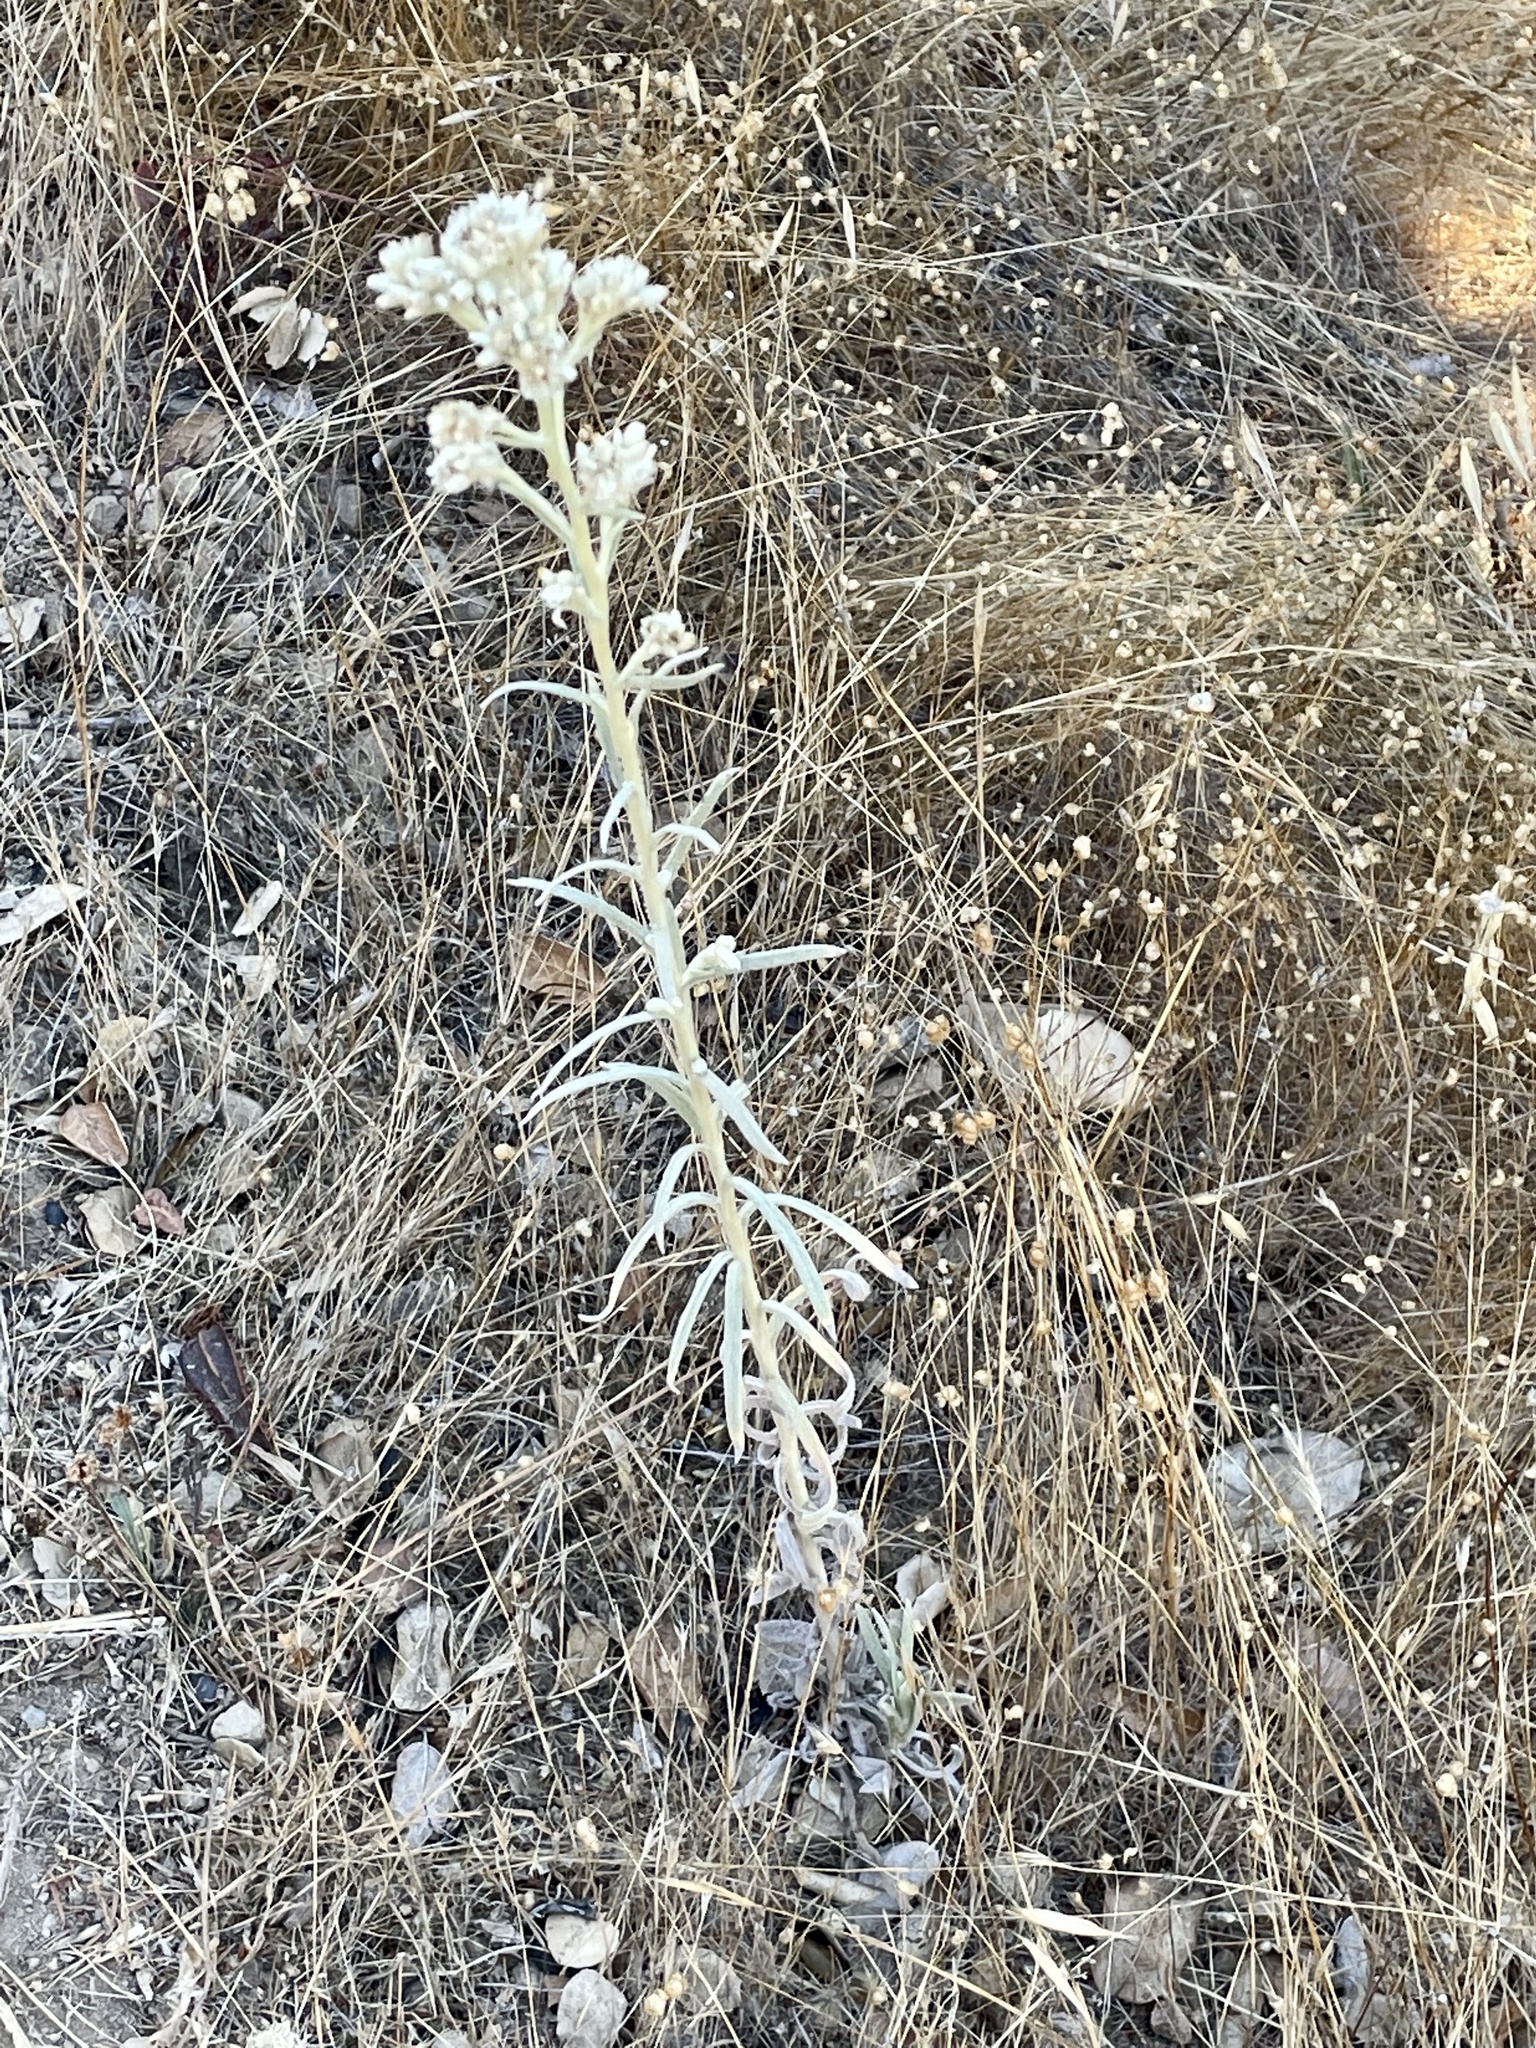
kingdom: Plantae
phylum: Tracheophyta
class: Magnoliopsida
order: Asterales
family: Asteraceae
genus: Pseudognaphalium
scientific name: Pseudognaphalium beneolens
